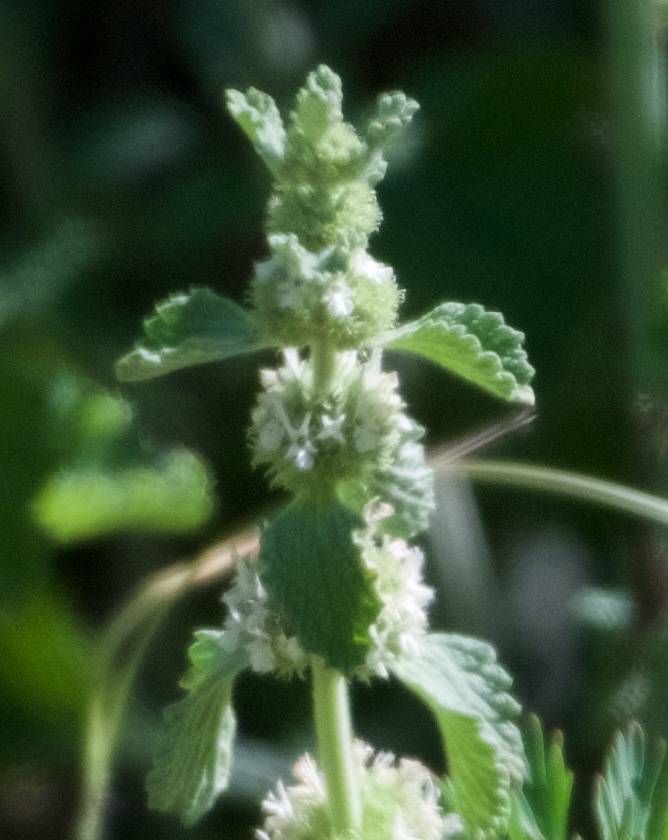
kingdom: Plantae
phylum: Tracheophyta
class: Magnoliopsida
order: Lamiales
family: Lamiaceae
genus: Marrubium
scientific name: Marrubium vulgare
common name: Horehound
